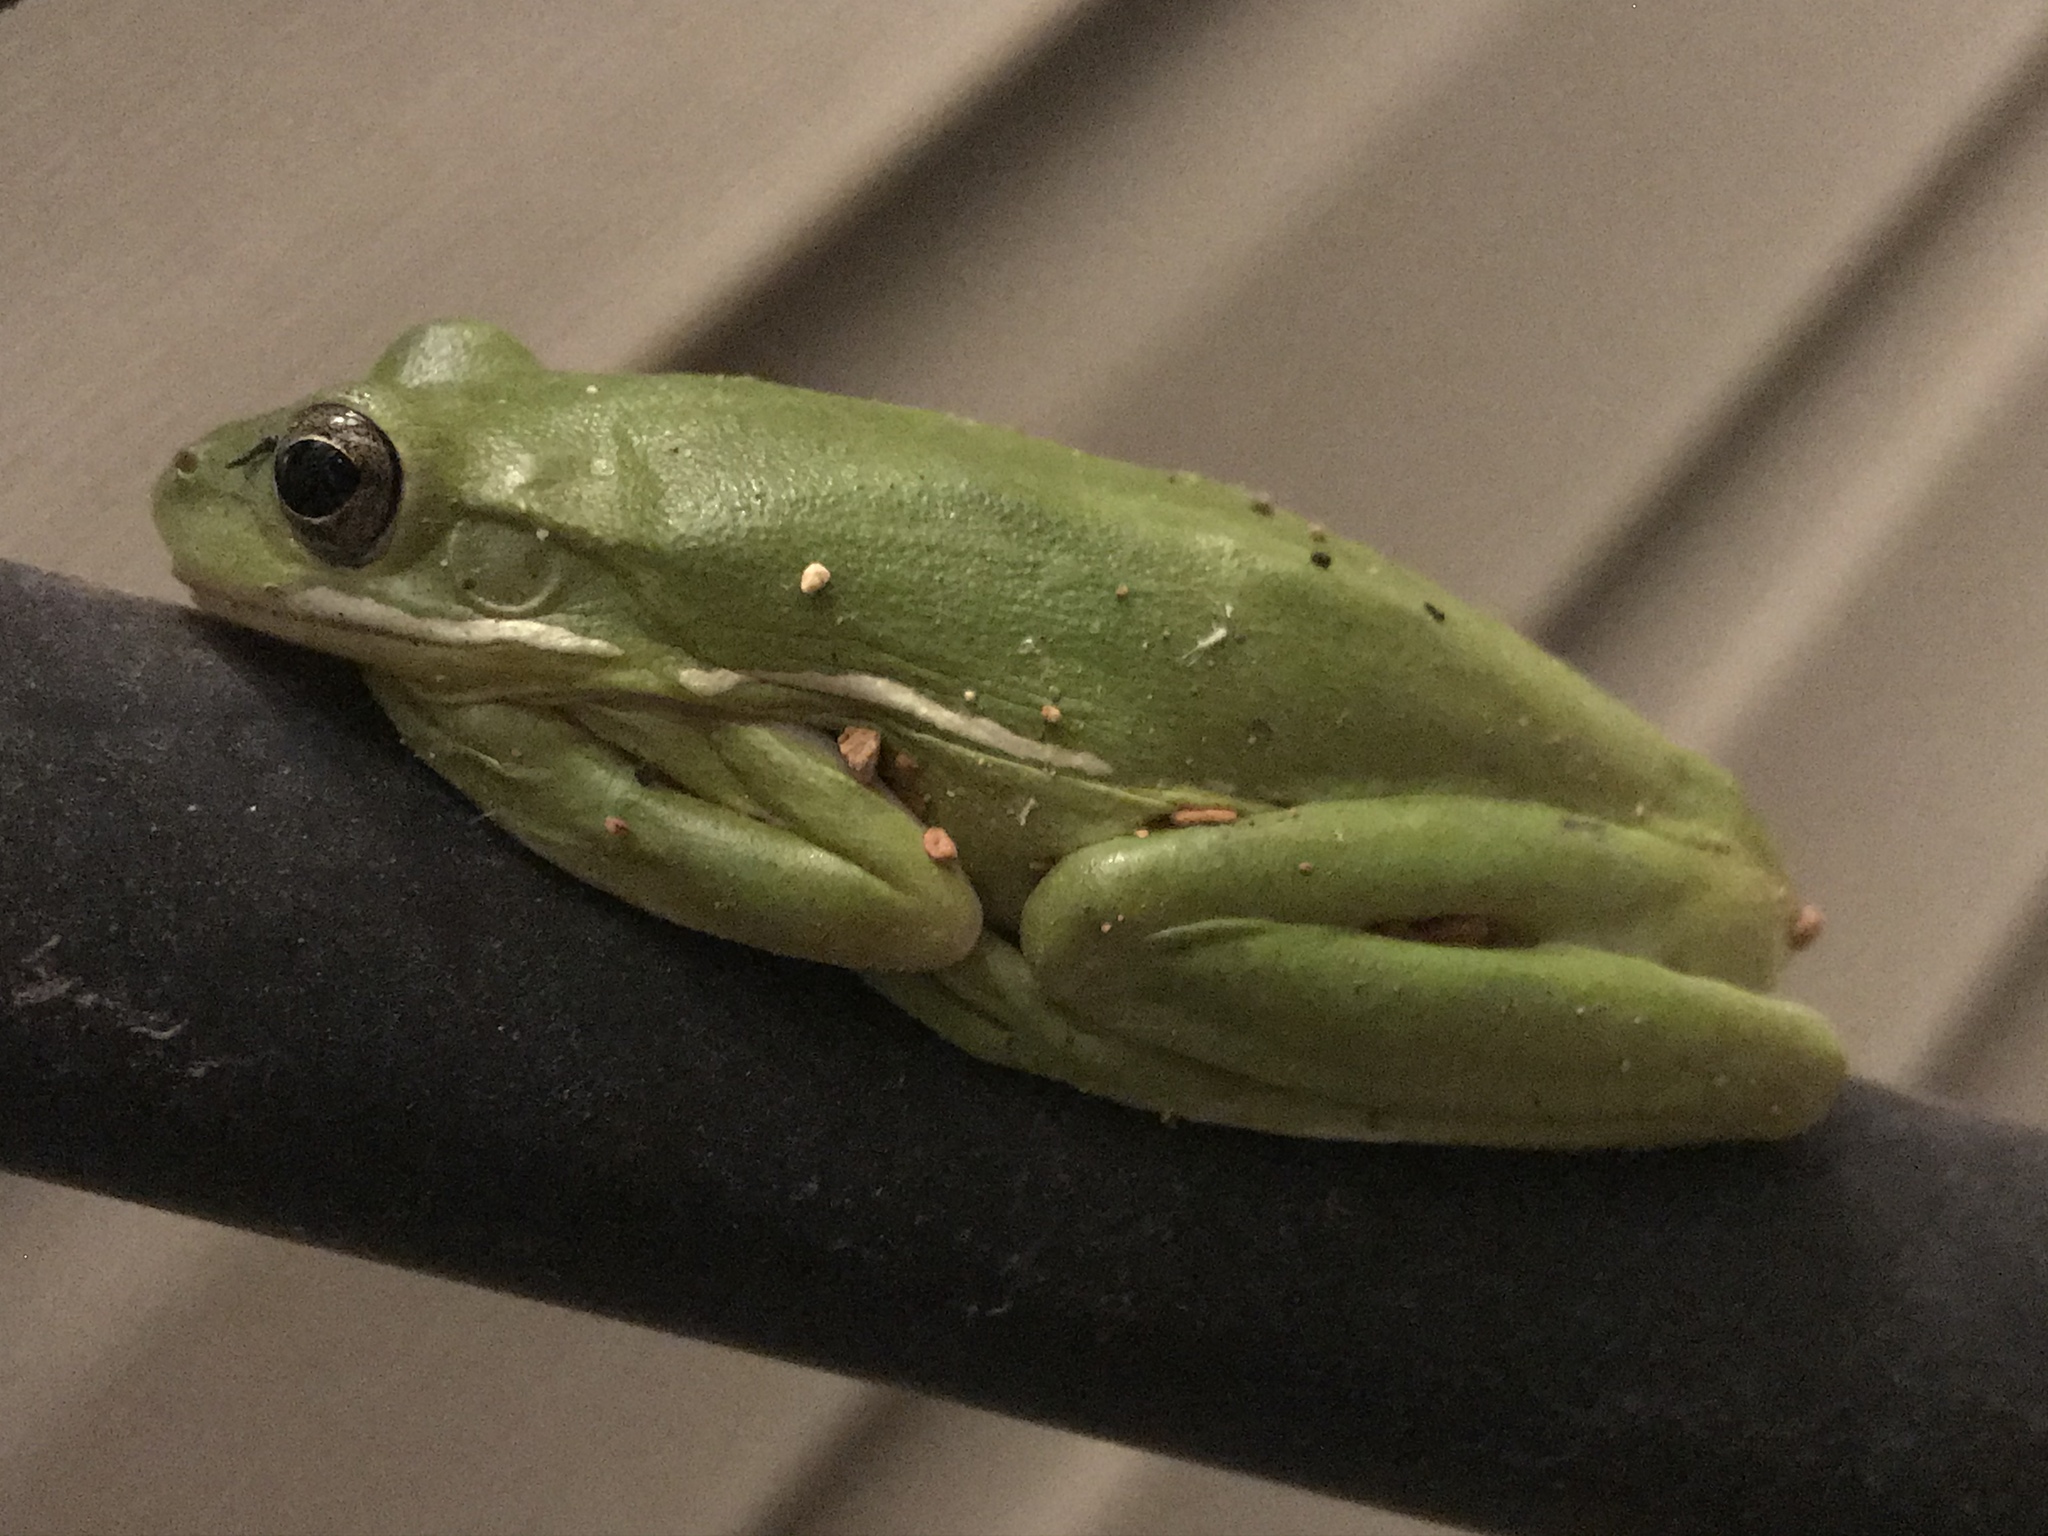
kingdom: Animalia
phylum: Chordata
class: Amphibia
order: Anura
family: Hylidae
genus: Dryophytes
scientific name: Dryophytes cinereus
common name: Green treefrog
